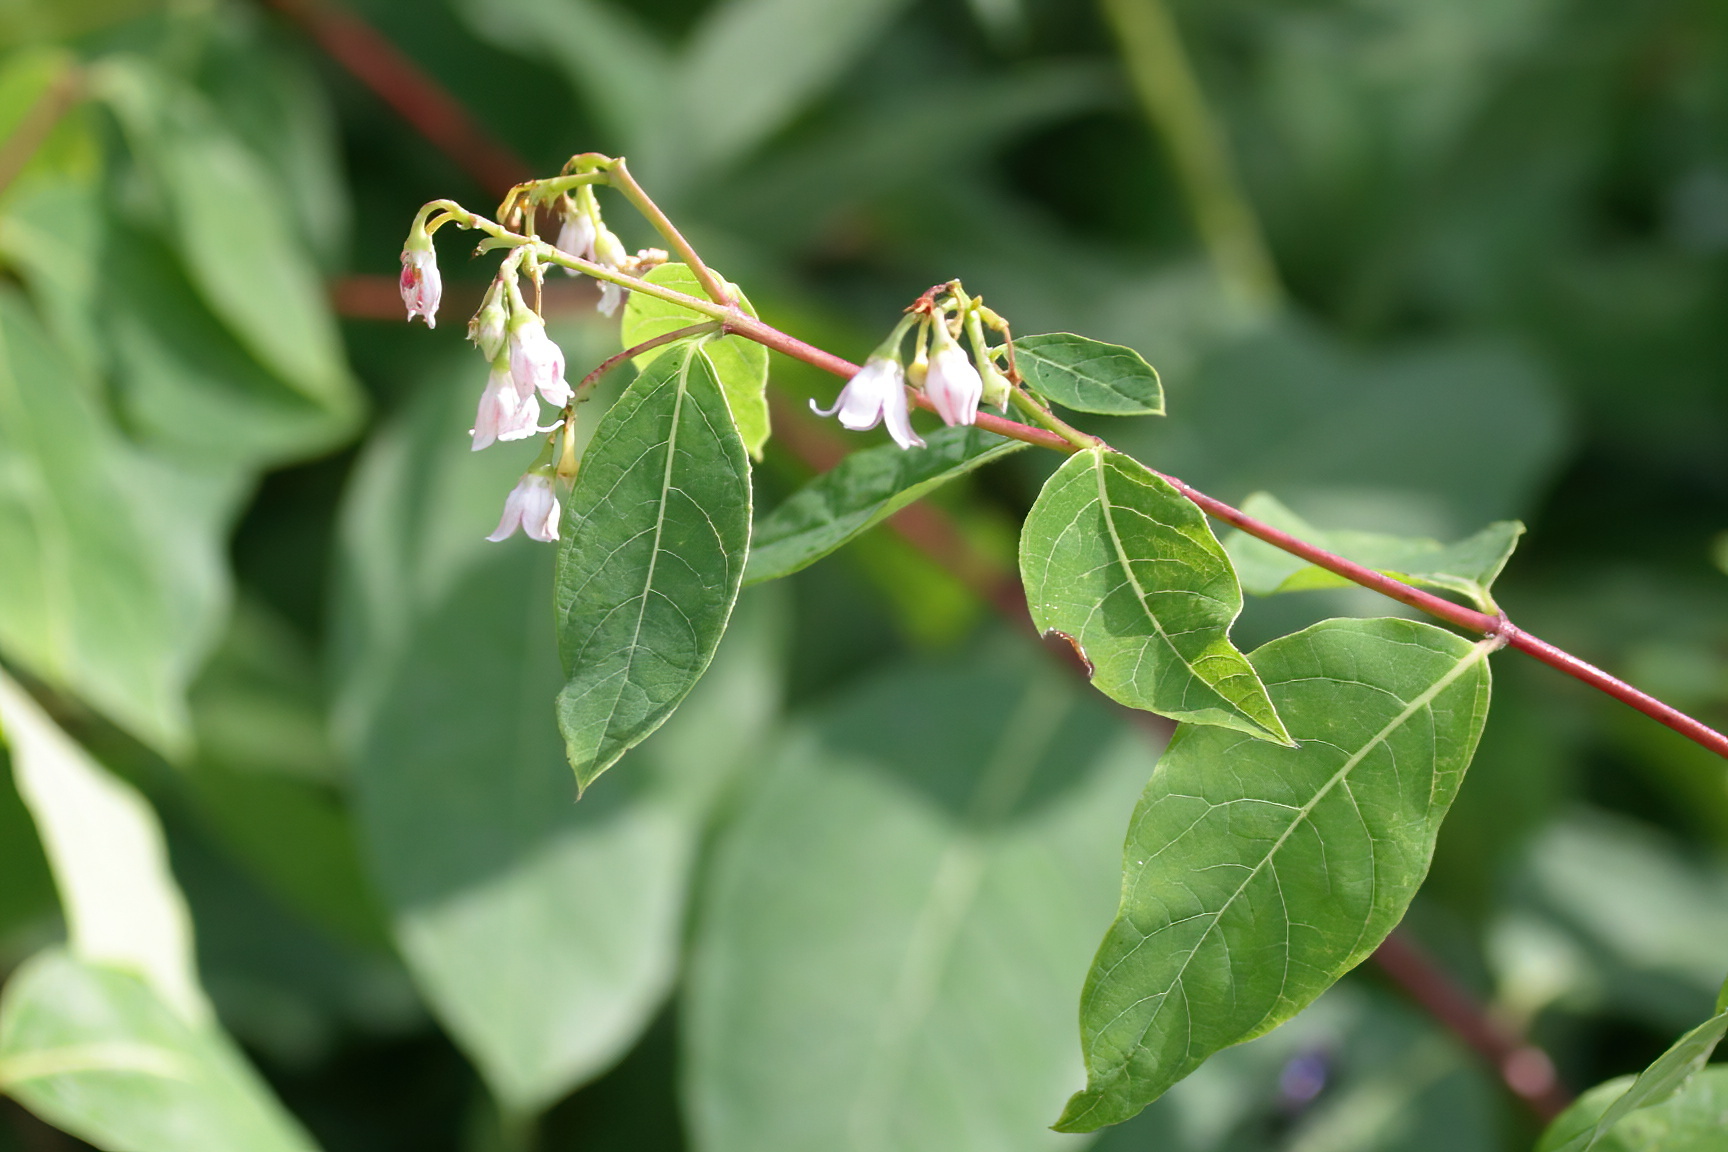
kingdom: Plantae
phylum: Tracheophyta
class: Magnoliopsida
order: Gentianales
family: Apocynaceae
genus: Apocynum
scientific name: Apocynum androsaemifolium
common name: Spreading dogbane
